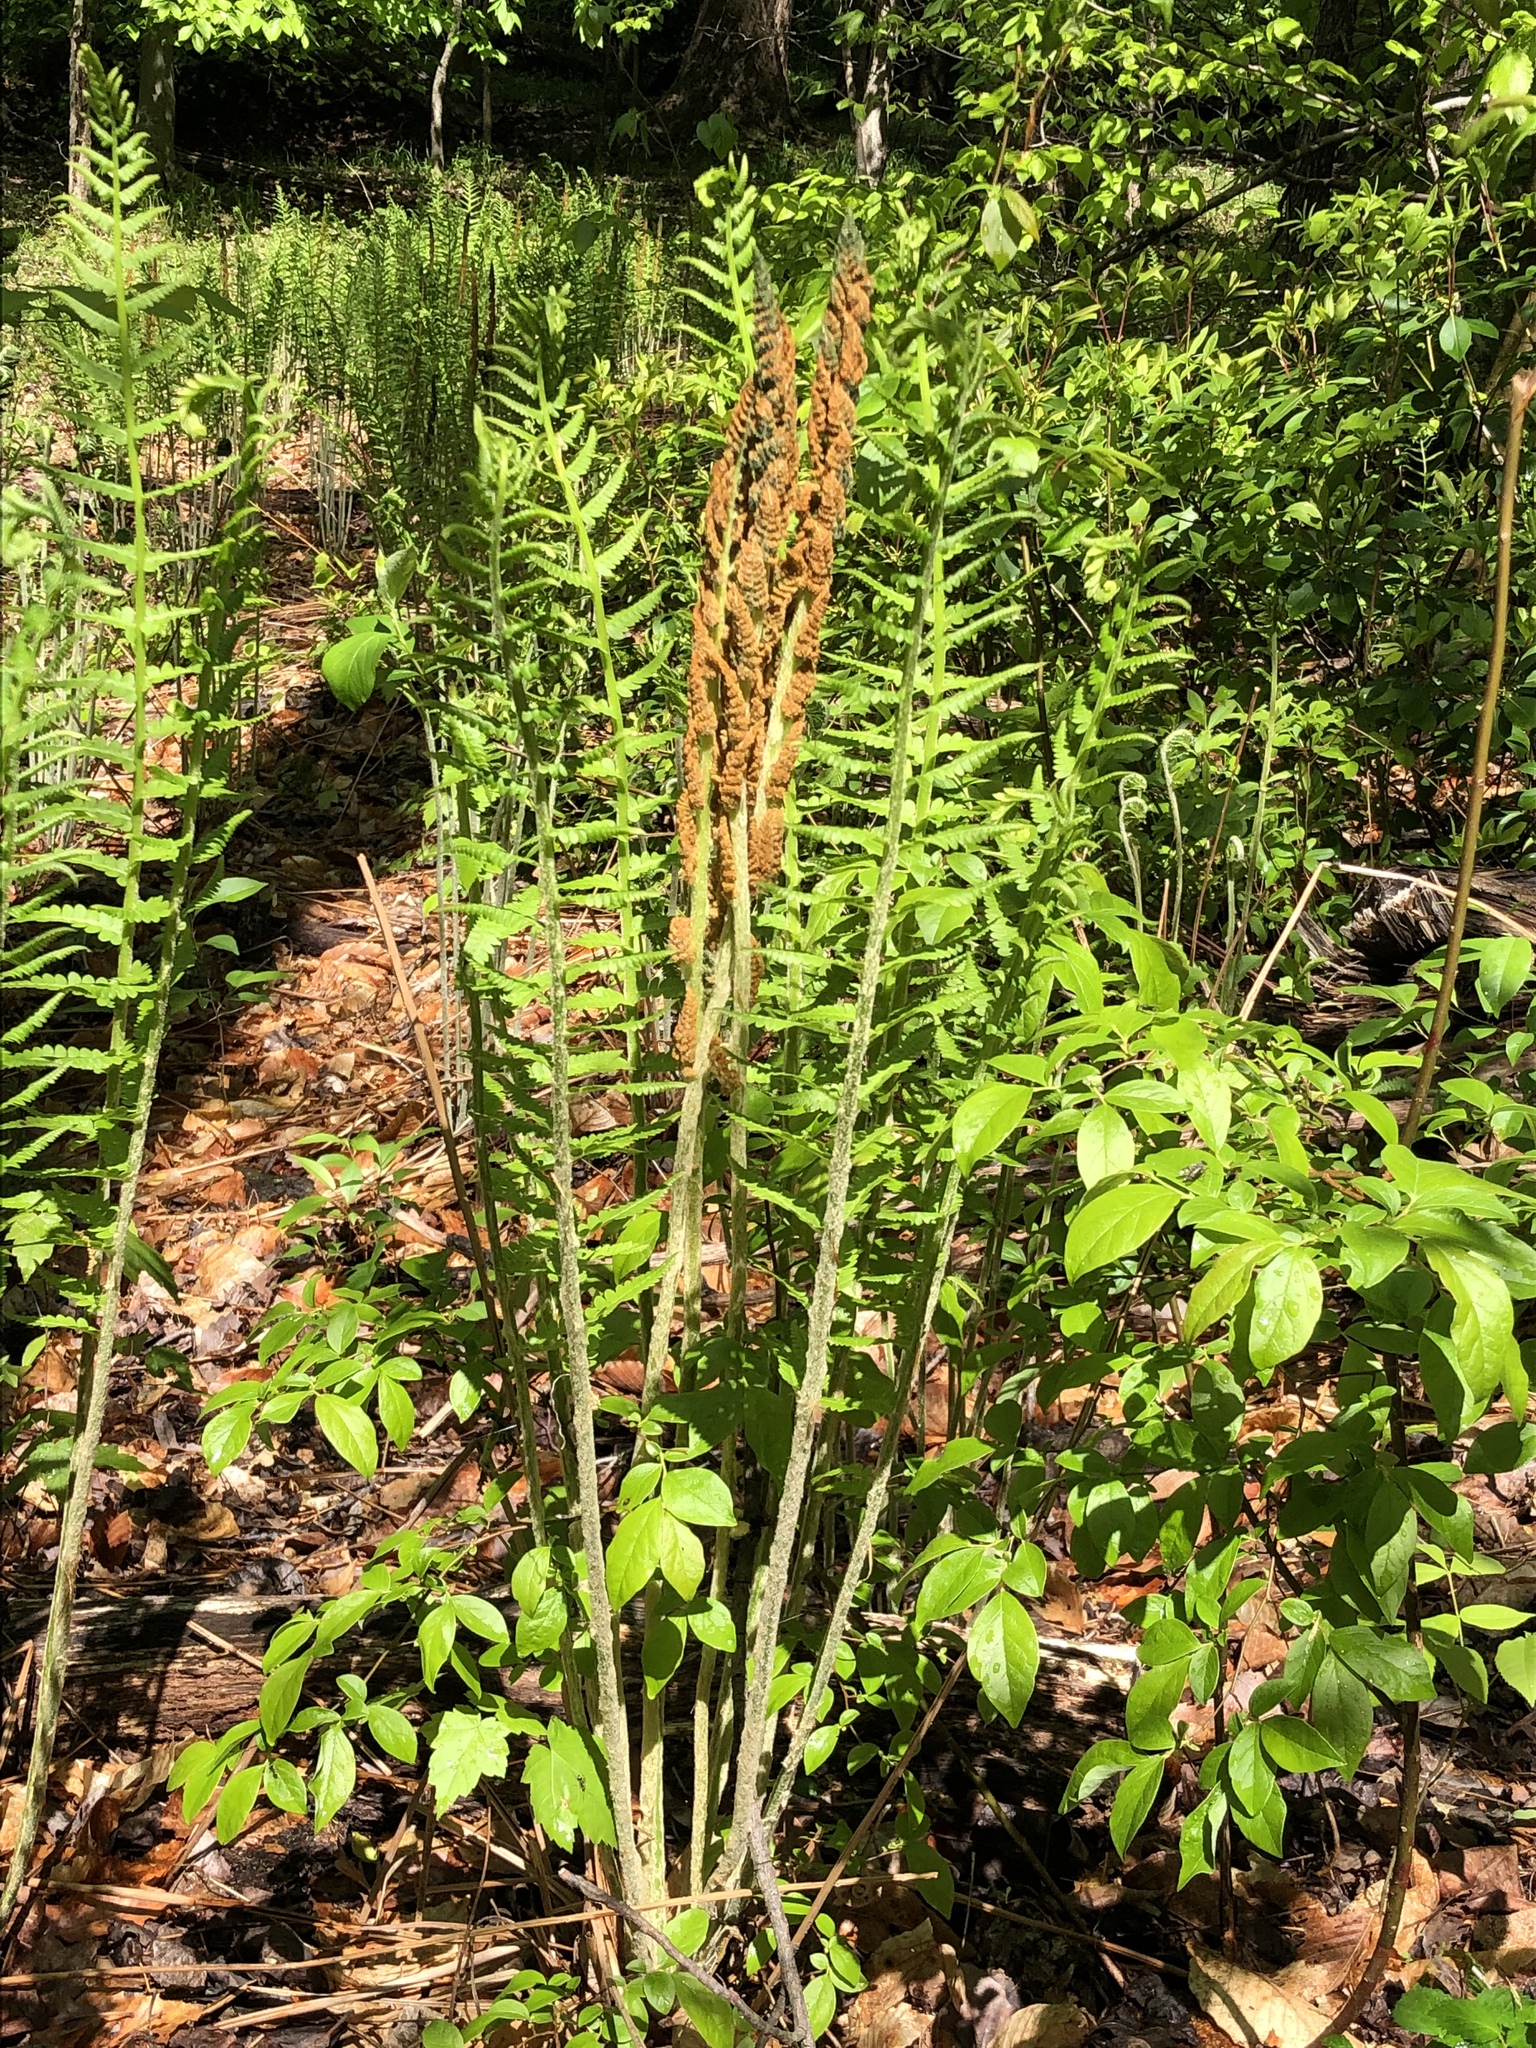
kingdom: Plantae
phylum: Tracheophyta
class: Polypodiopsida
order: Osmundales
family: Osmundaceae
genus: Osmundastrum
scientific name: Osmundastrum cinnamomeum
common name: Cinnamon fern
